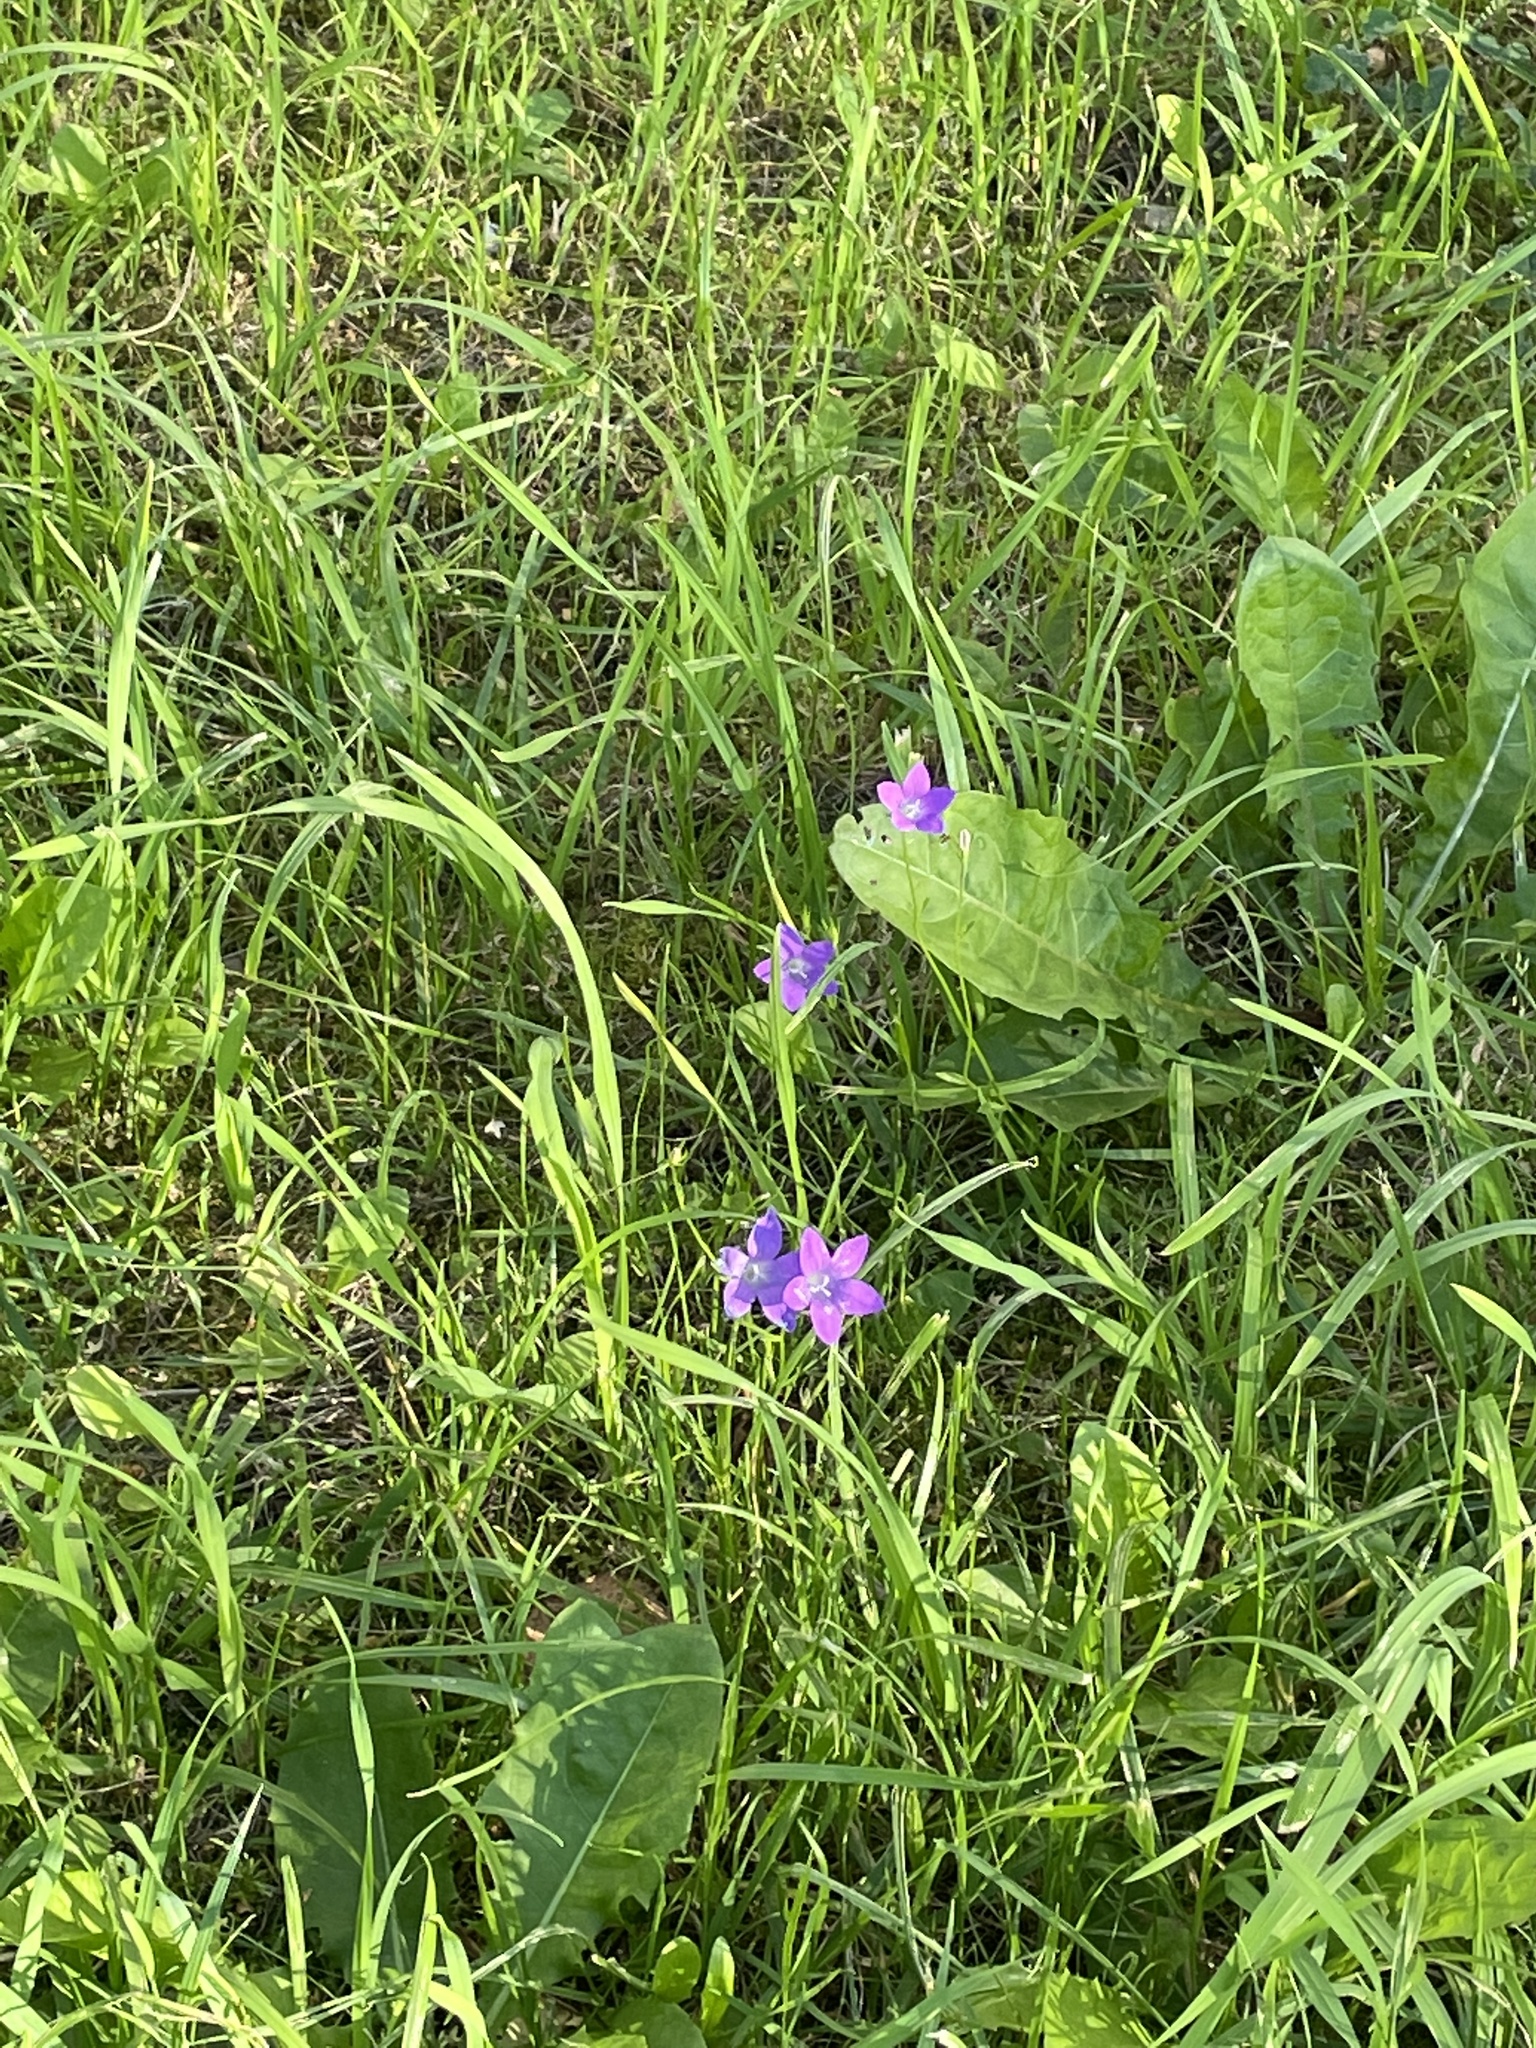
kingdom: Plantae
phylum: Tracheophyta
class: Magnoliopsida
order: Asterales
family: Campanulaceae
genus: Campanula
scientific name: Campanula patula
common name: Spreading bellflower
